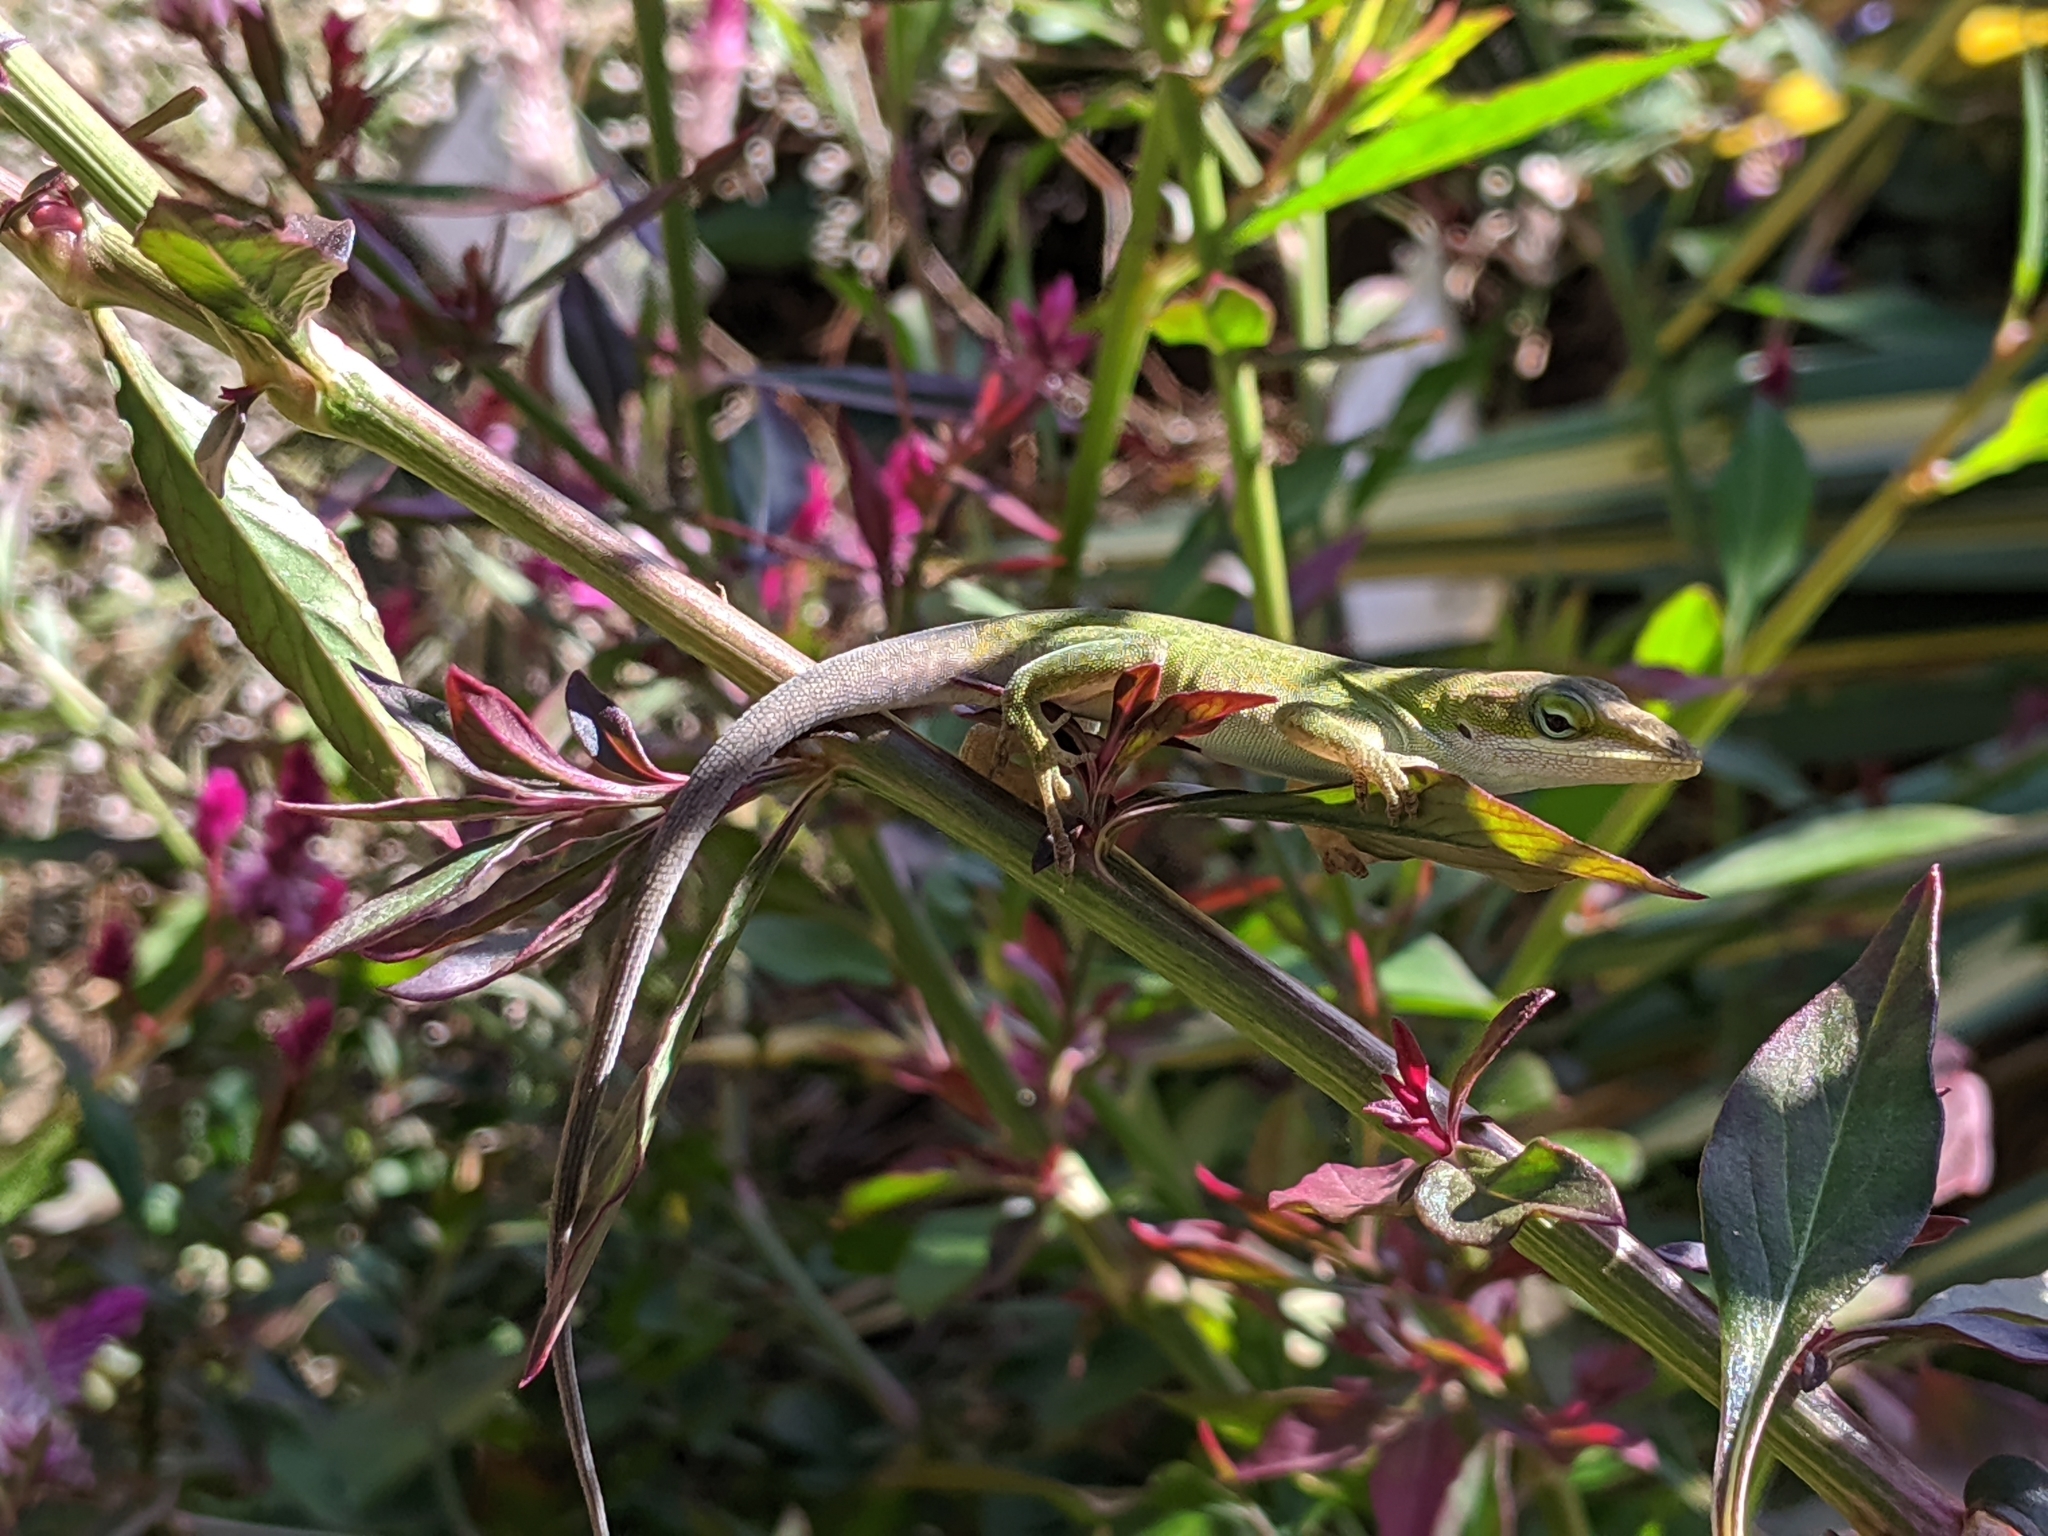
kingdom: Animalia
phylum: Chordata
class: Squamata
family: Dactyloidae
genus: Anolis
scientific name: Anolis carolinensis
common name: Green anole
